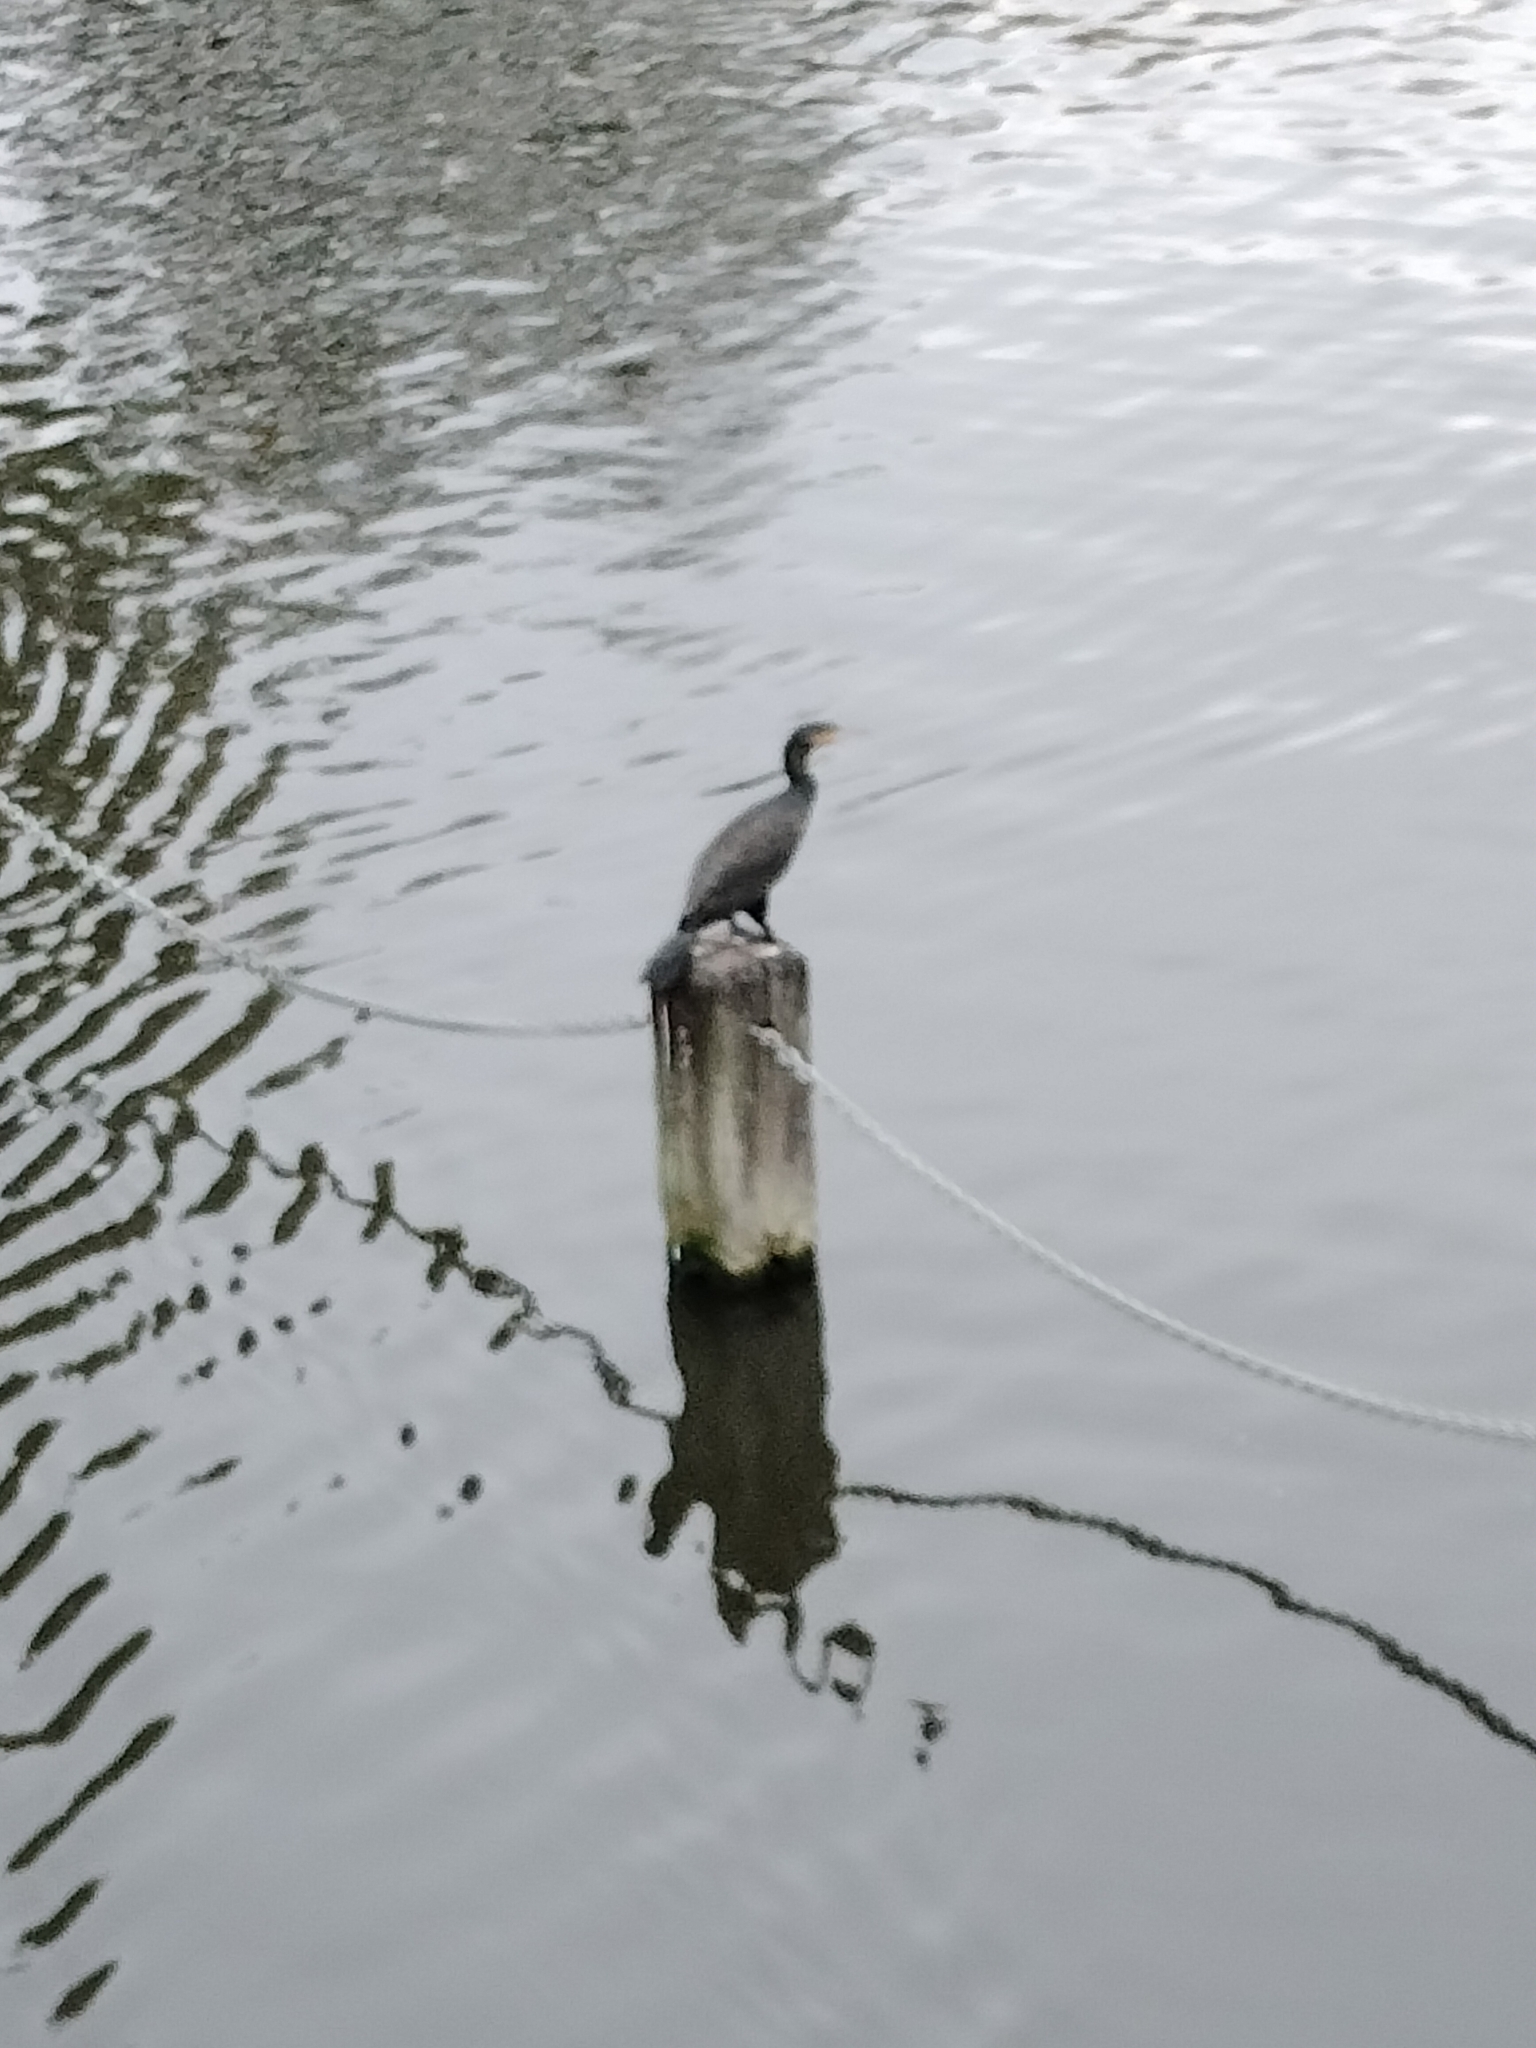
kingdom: Animalia
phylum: Chordata
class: Aves
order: Suliformes
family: Phalacrocoracidae
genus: Phalacrocorax
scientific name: Phalacrocorax carbo
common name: Great cormorant
